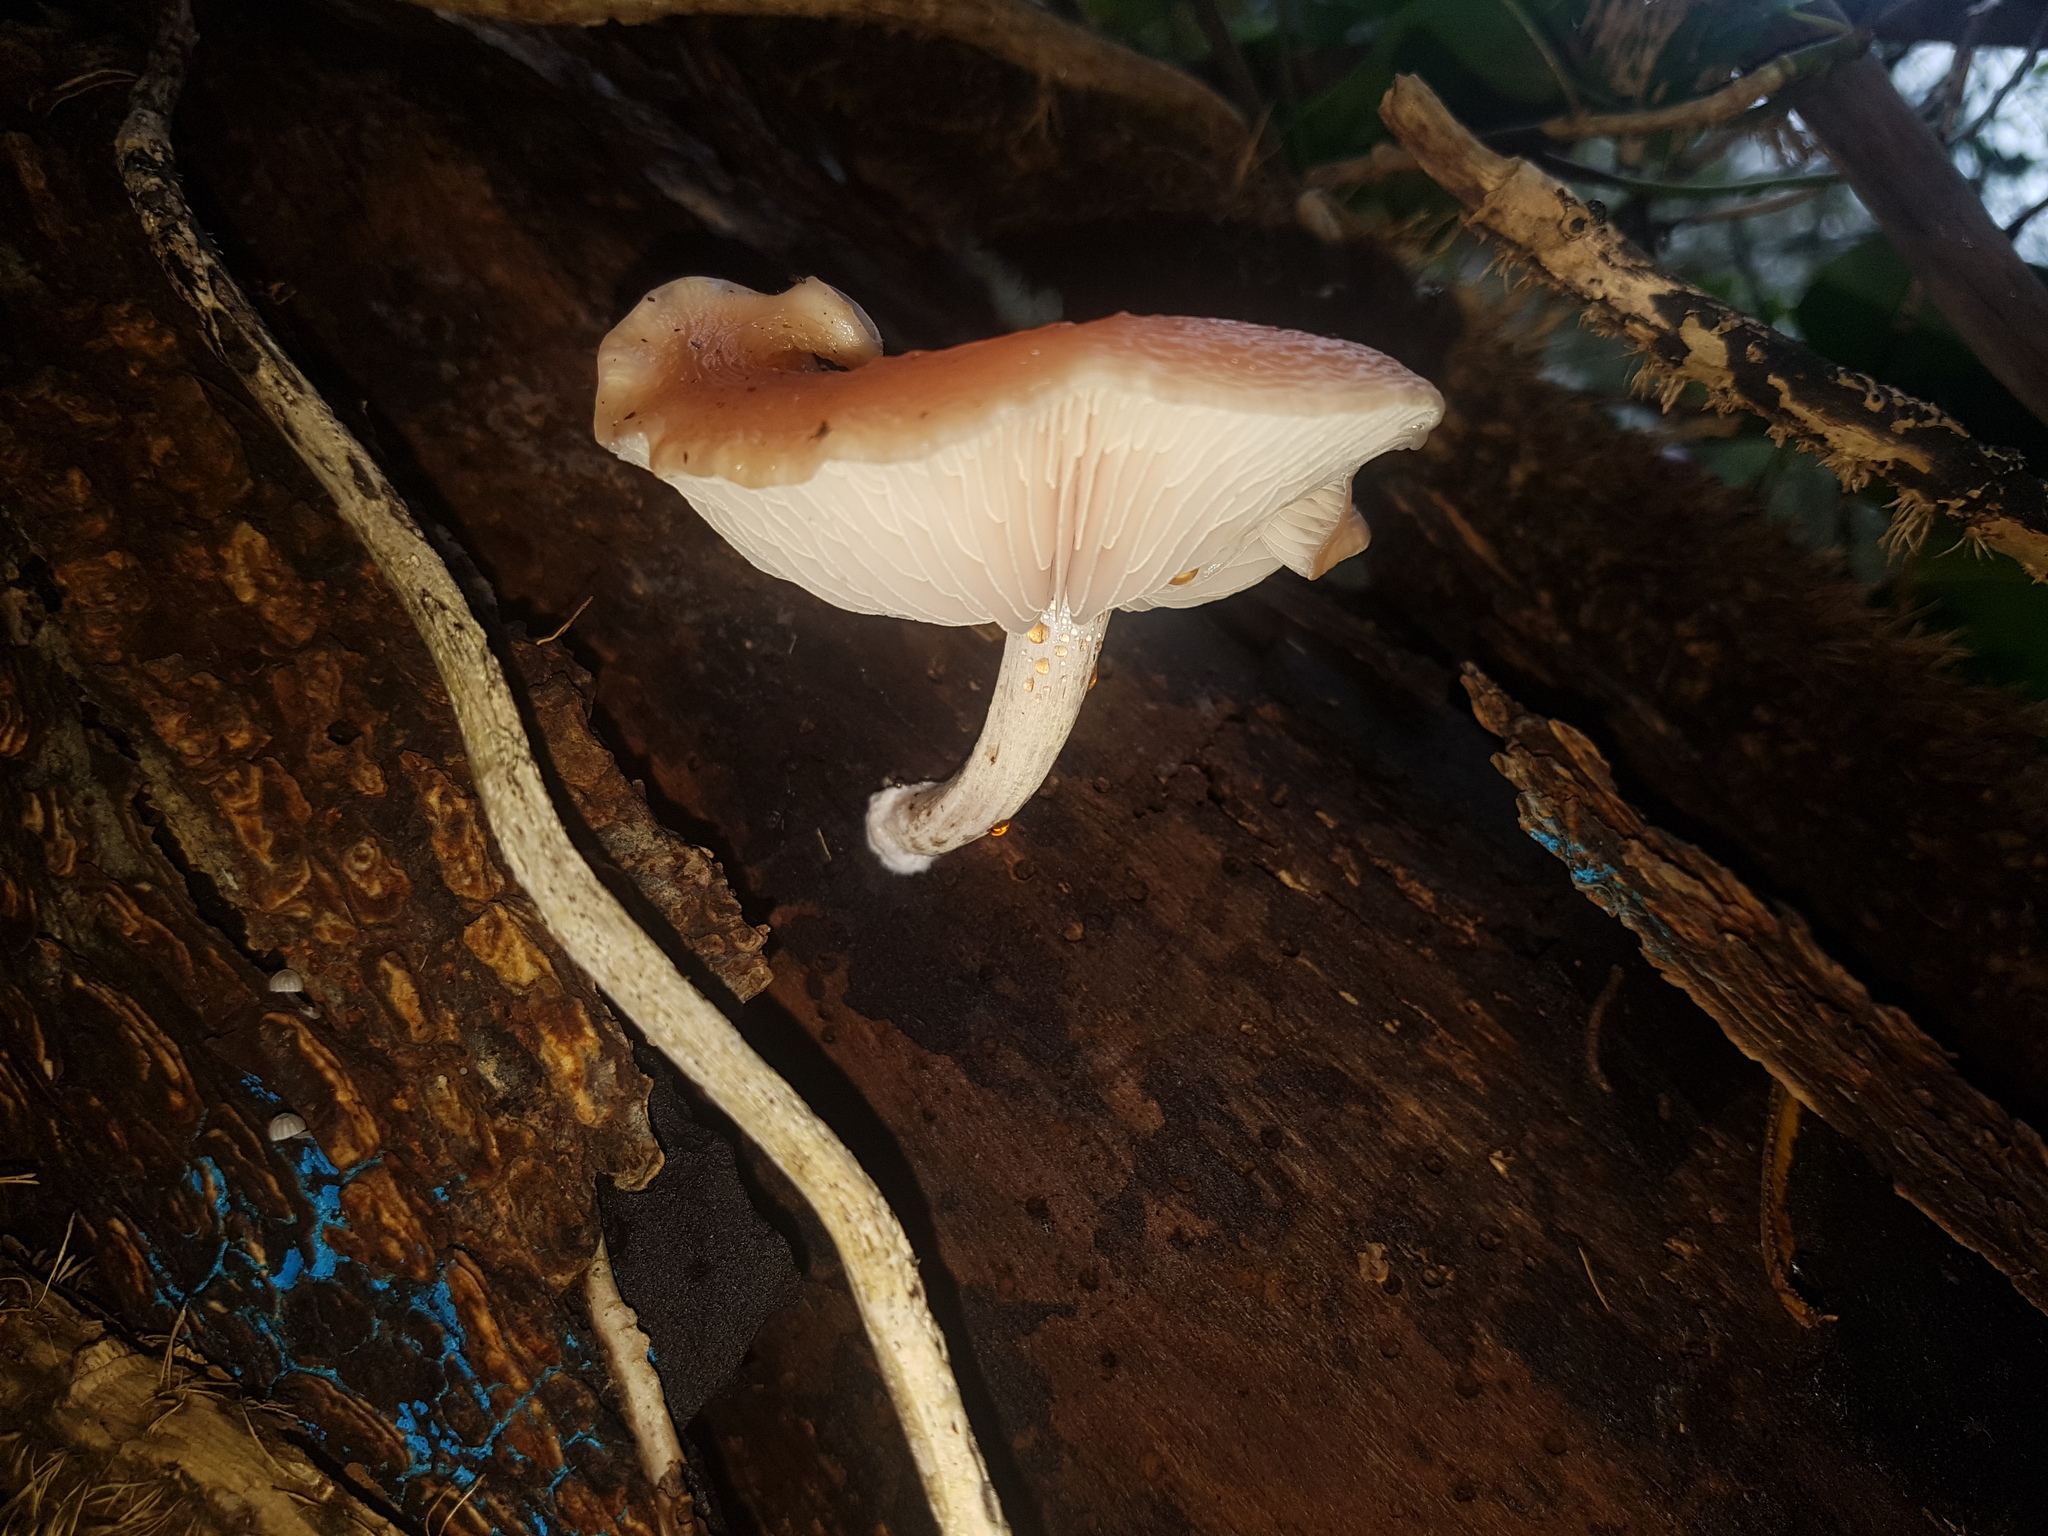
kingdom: Fungi
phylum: Basidiomycota
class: Agaricomycetes
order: Agaricales
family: Physalacriaceae
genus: Rhodotus
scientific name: Rhodotus palmatus
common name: Wrinkled peach
